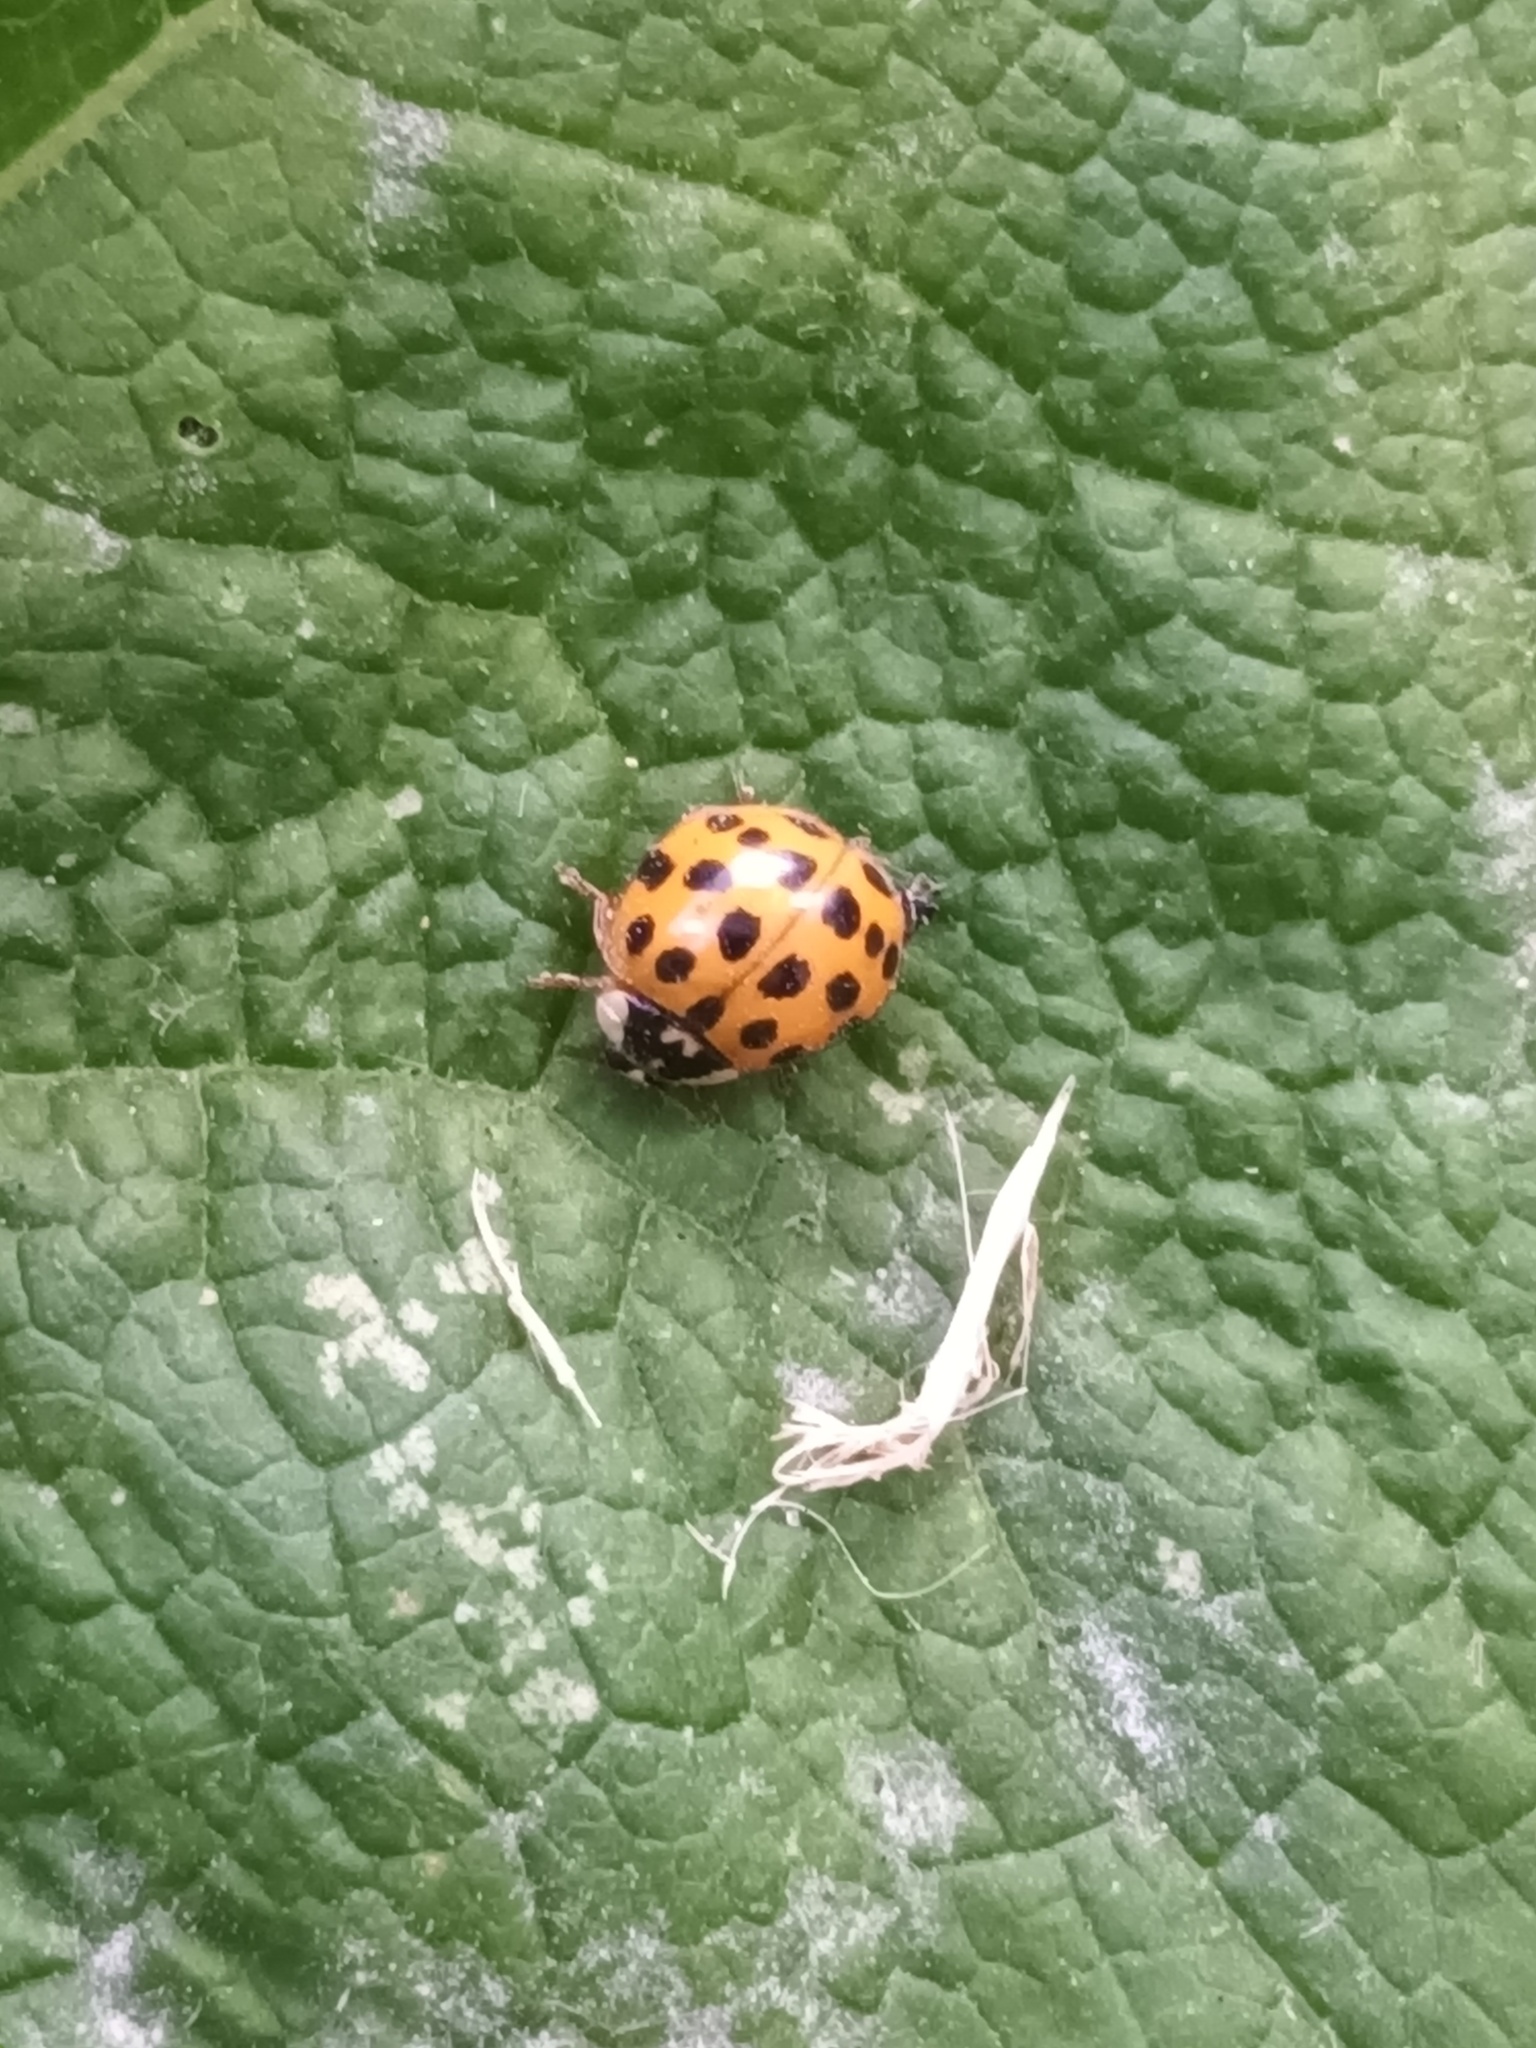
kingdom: Animalia
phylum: Arthropoda
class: Insecta
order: Coleoptera
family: Coccinellidae
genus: Harmonia
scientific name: Harmonia axyridis
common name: Harlequin ladybird
